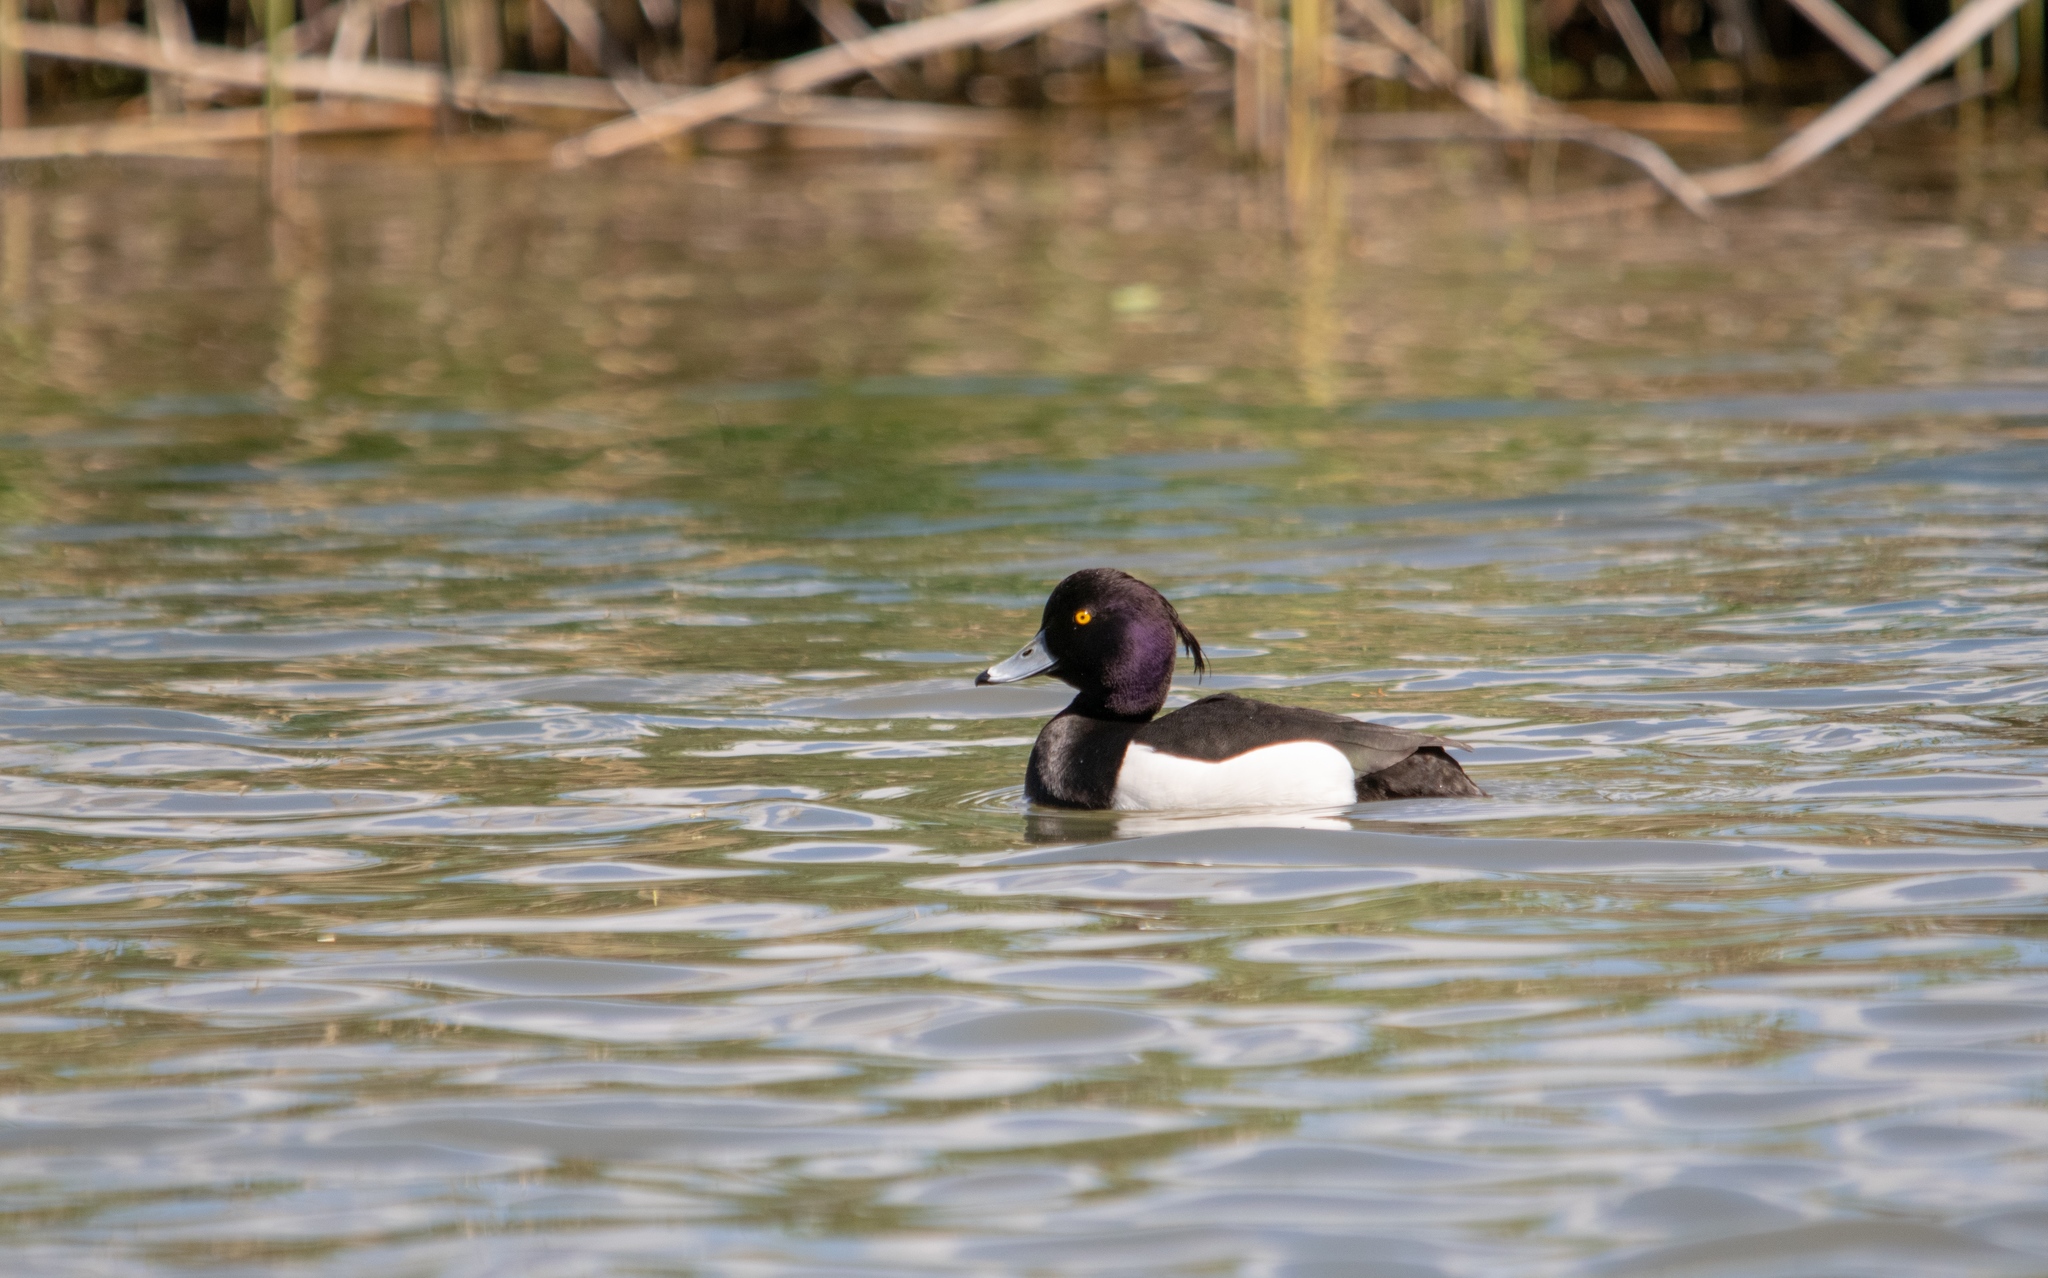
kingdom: Animalia
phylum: Chordata
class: Aves
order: Anseriformes
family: Anatidae
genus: Aythya
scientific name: Aythya fuligula
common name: Tufted duck
